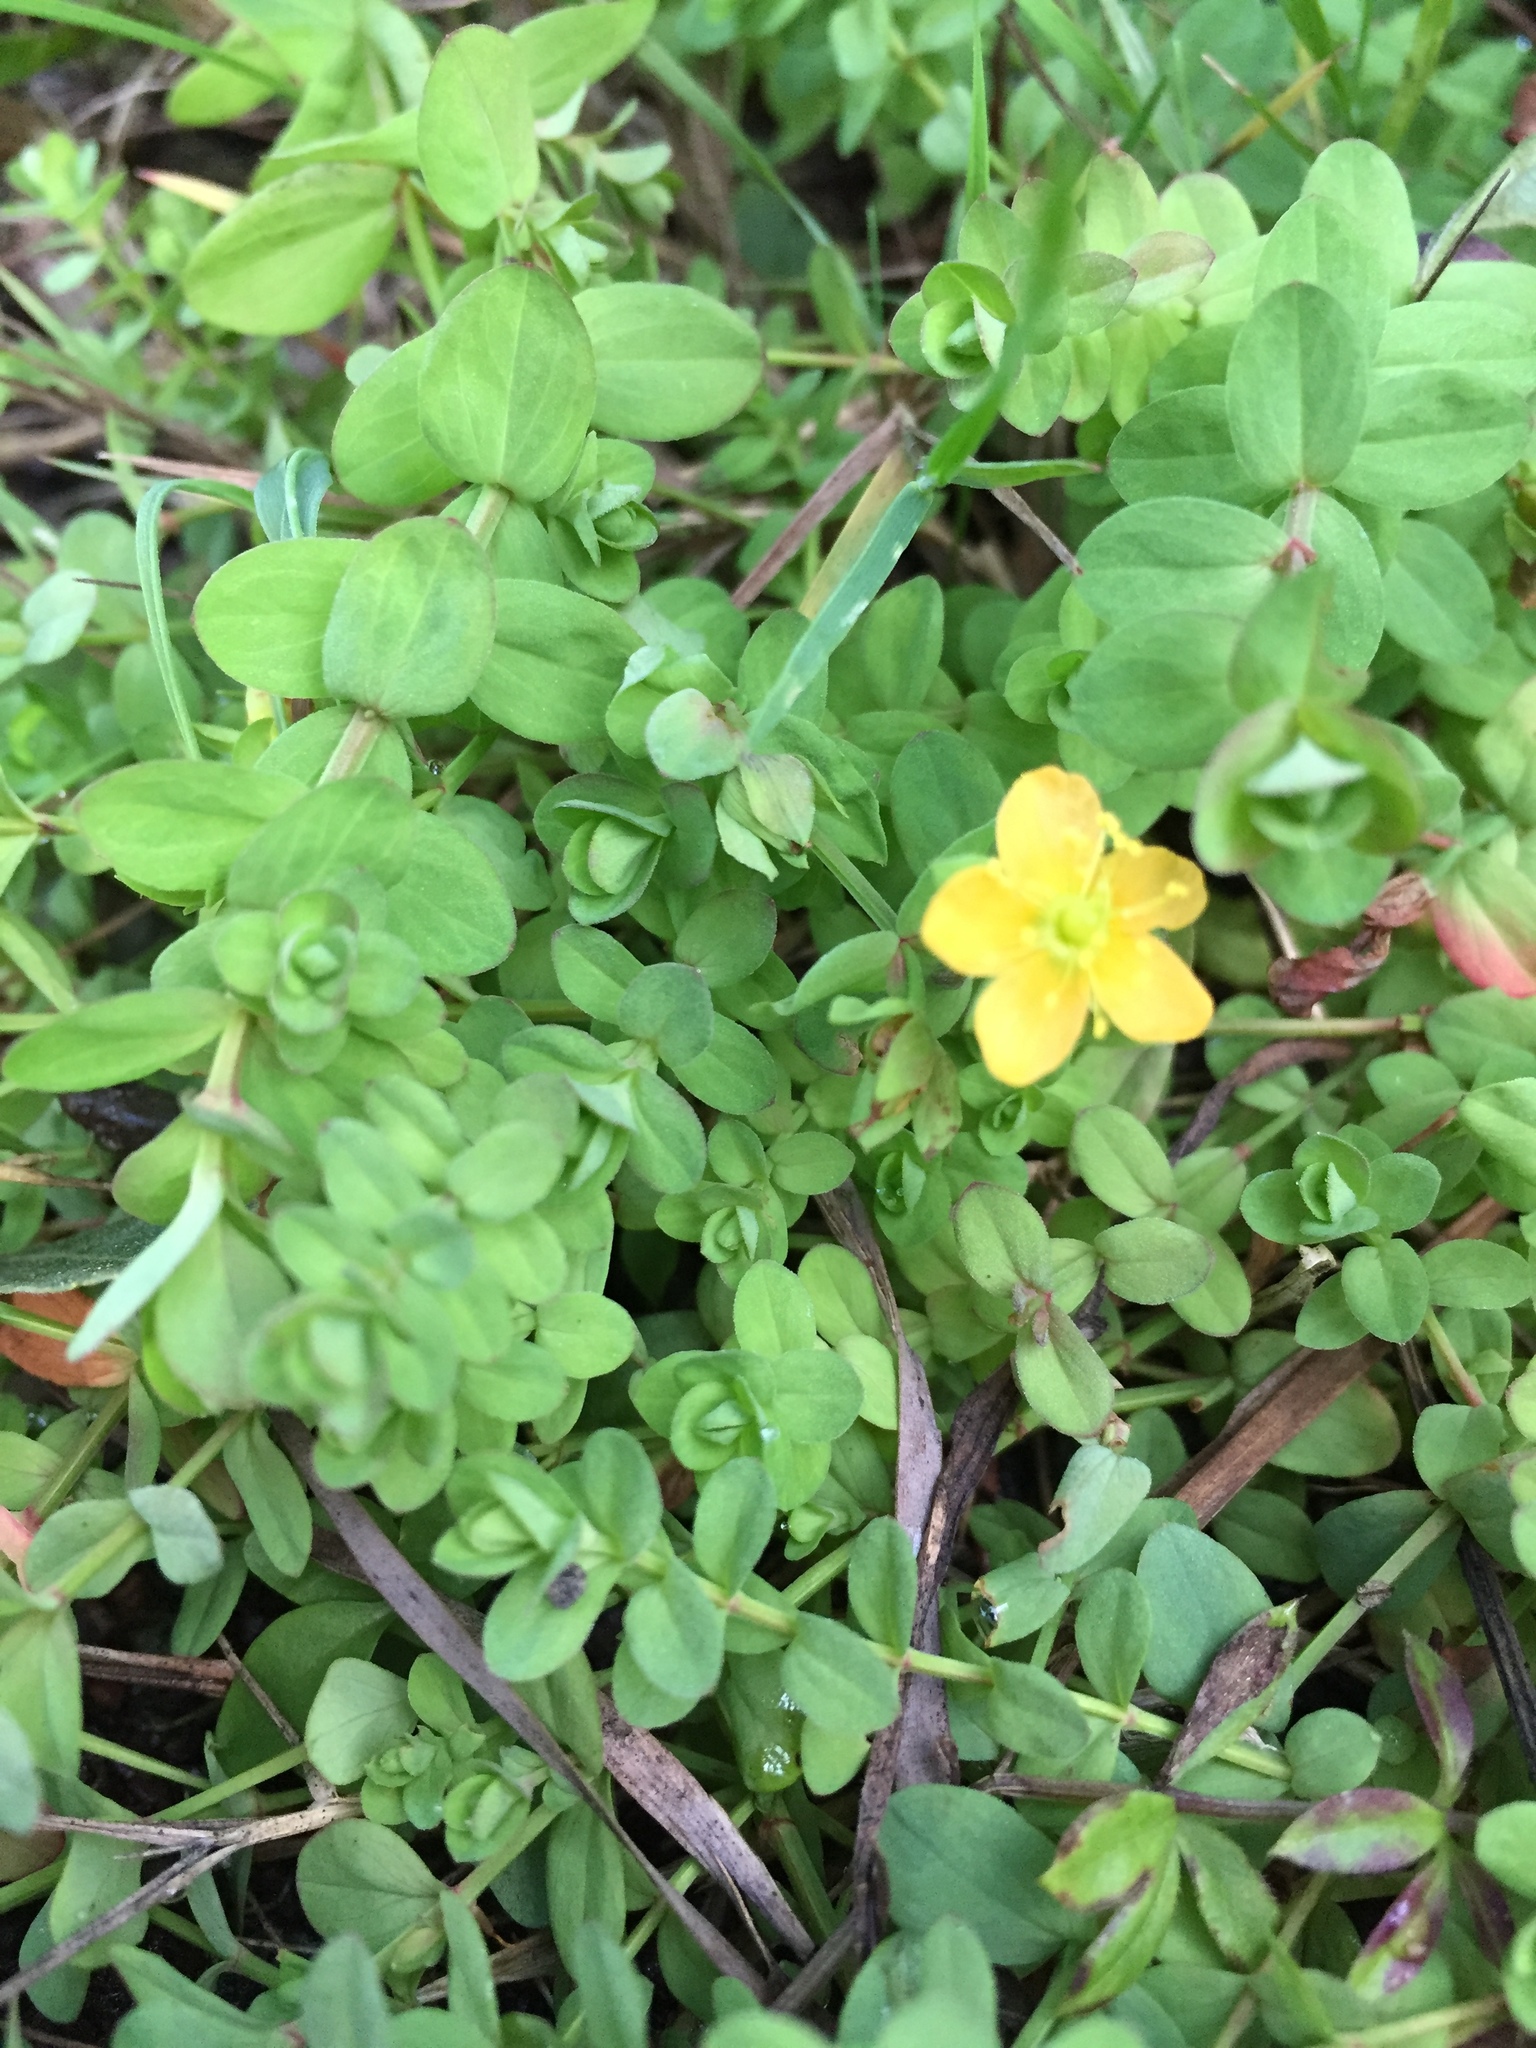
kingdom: Plantae
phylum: Tracheophyta
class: Magnoliopsida
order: Malpighiales
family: Hypericaceae
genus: Hypericum
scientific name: Hypericum anagalloides
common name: Bog st. john's-wort
